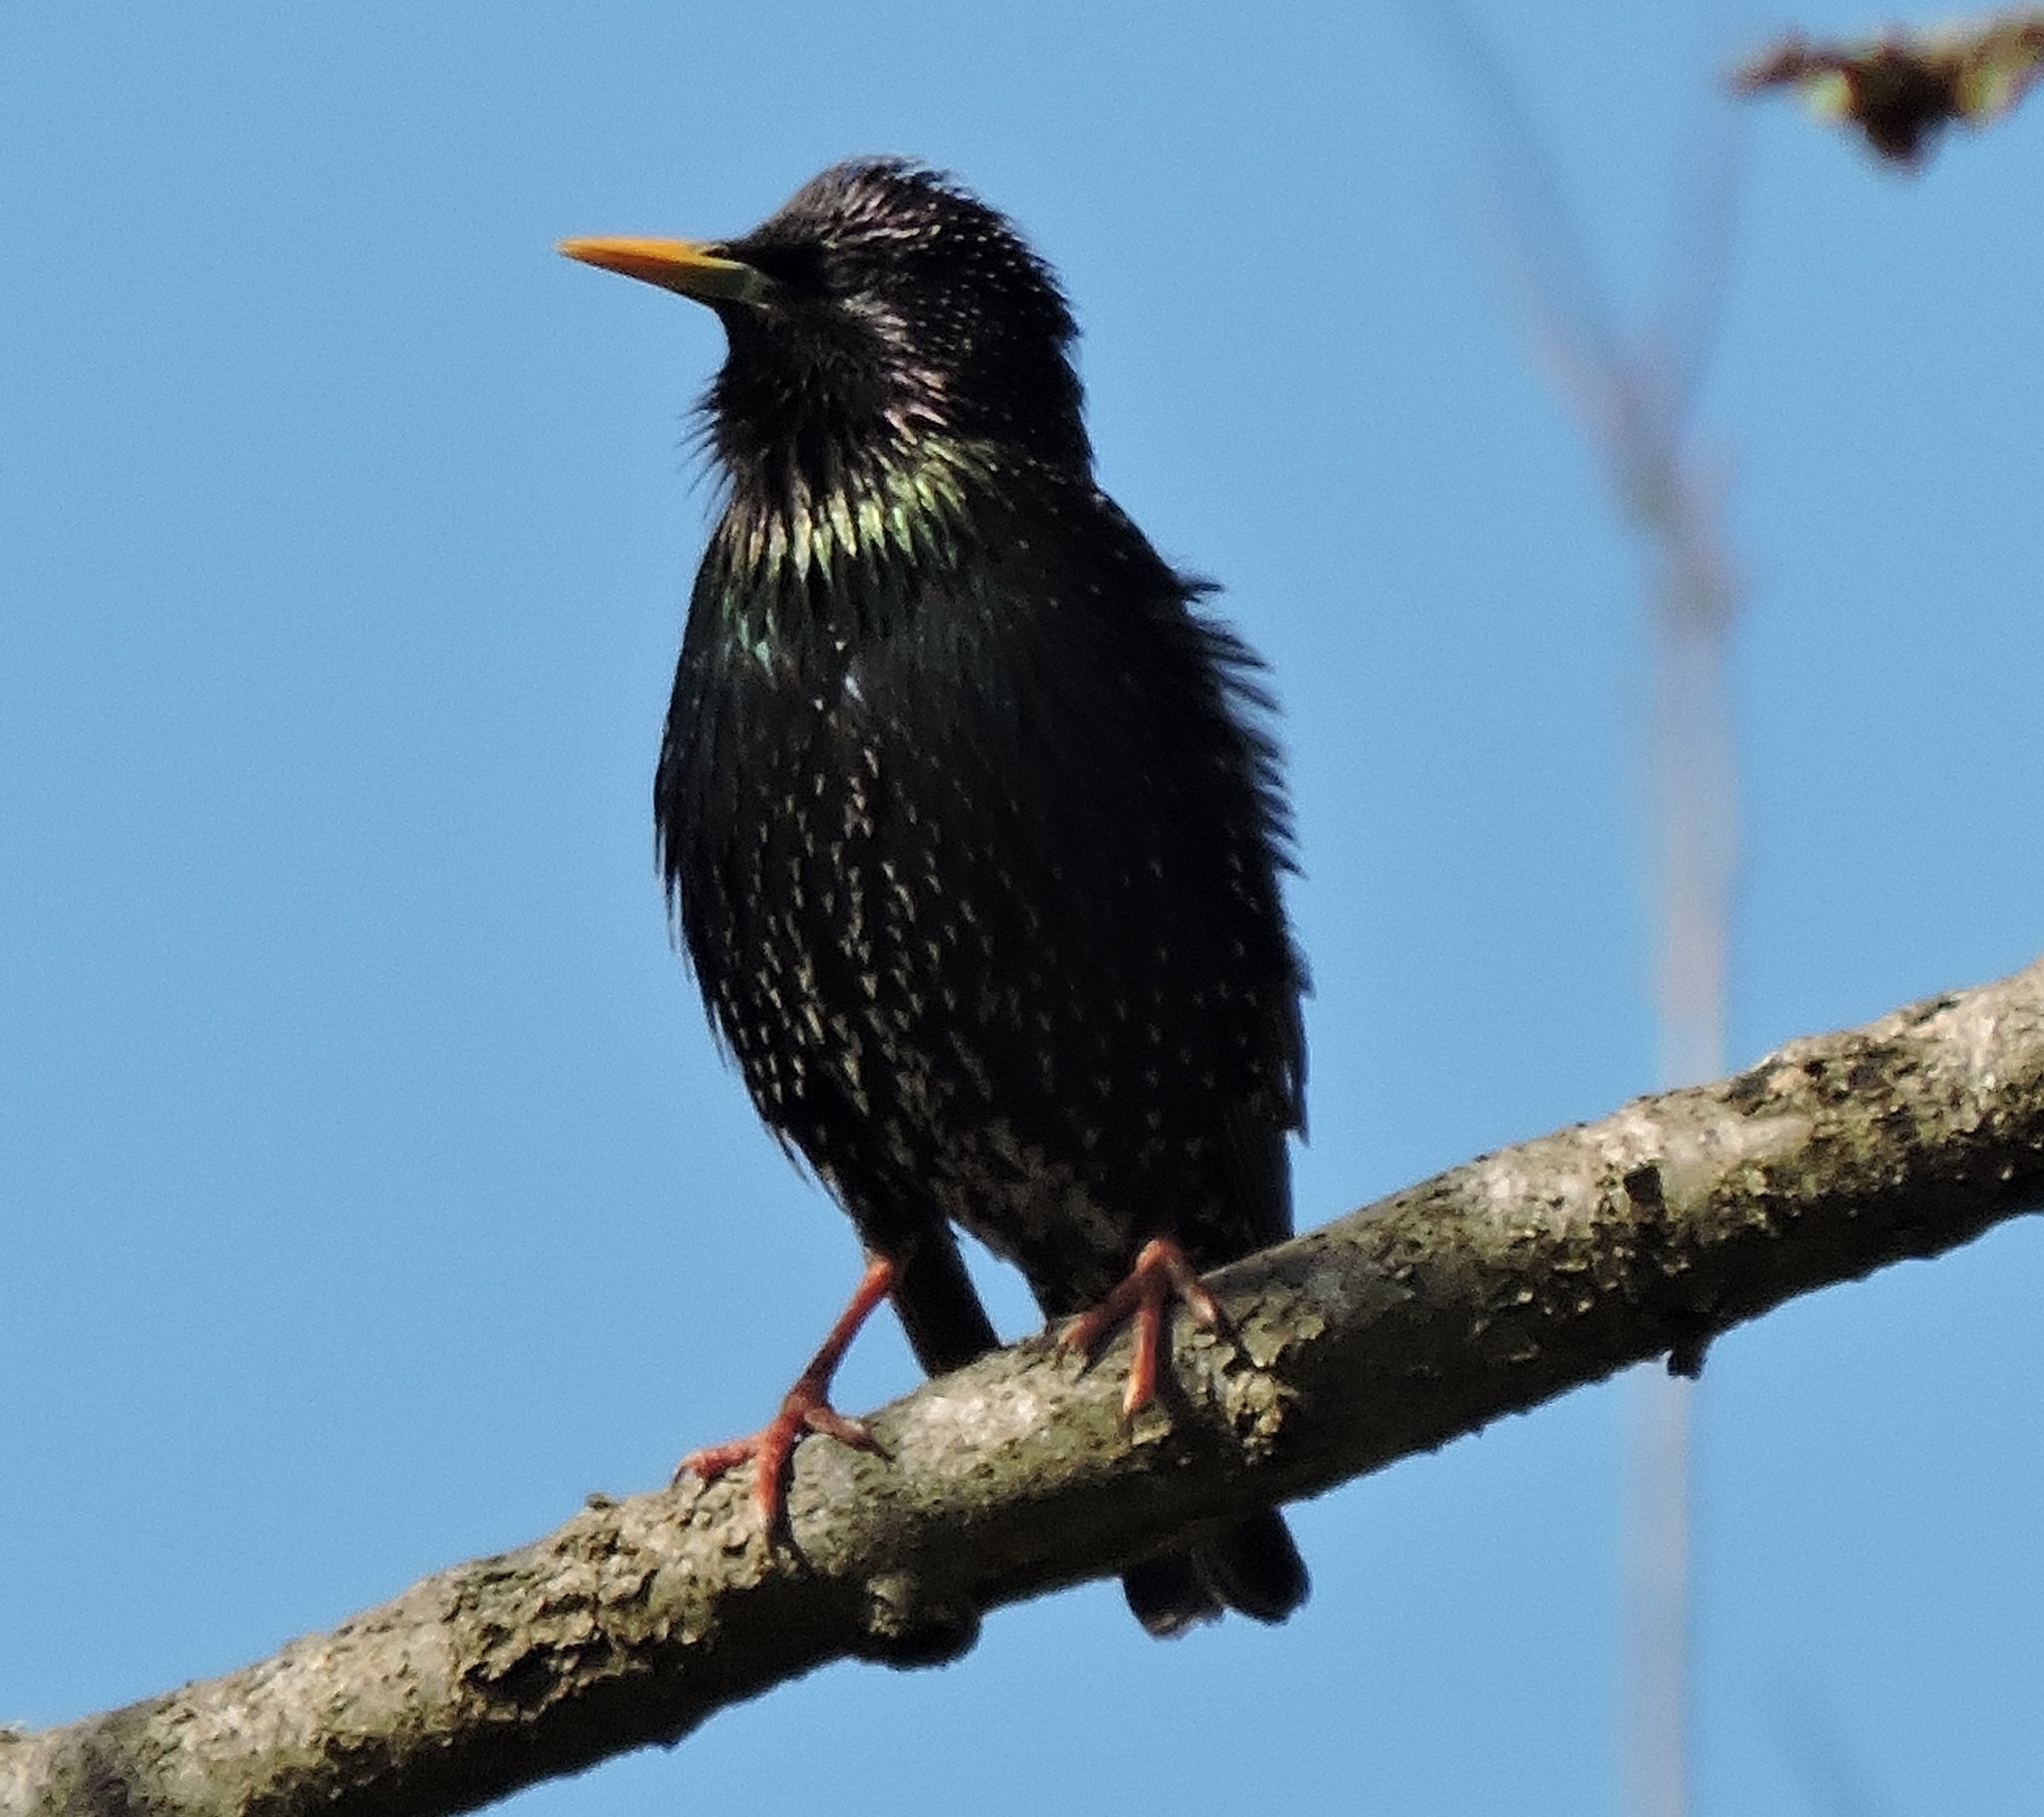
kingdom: Animalia
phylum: Chordata
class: Aves
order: Passeriformes
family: Sturnidae
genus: Sturnus
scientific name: Sturnus vulgaris
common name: Common starling
